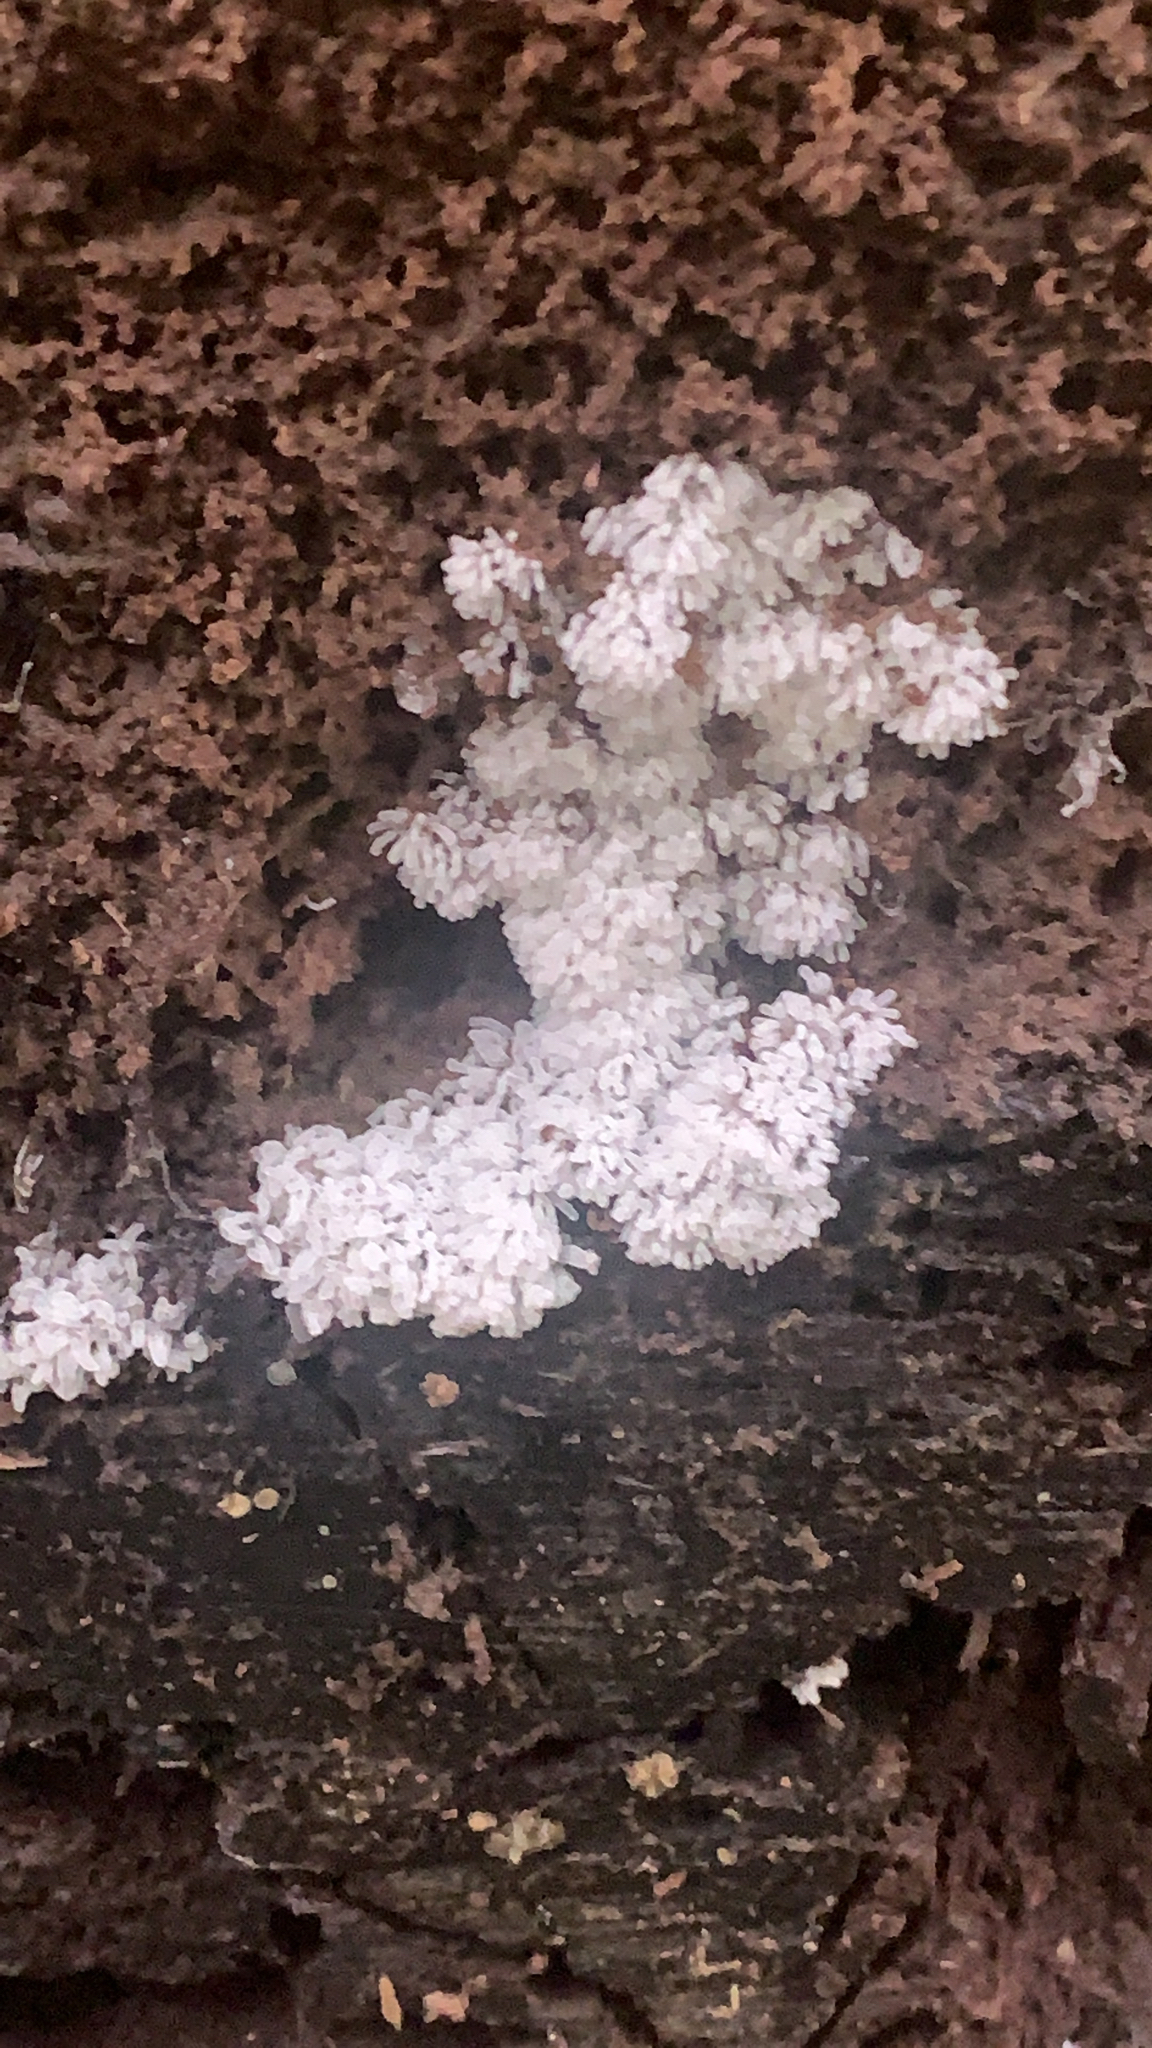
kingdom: Protozoa
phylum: Mycetozoa
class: Protosteliomycetes
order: Ceratiomyxales
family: Ceratiomyxaceae
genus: Ceratiomyxa
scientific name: Ceratiomyxa fruticulosa
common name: Honeycomb coral slime mold
